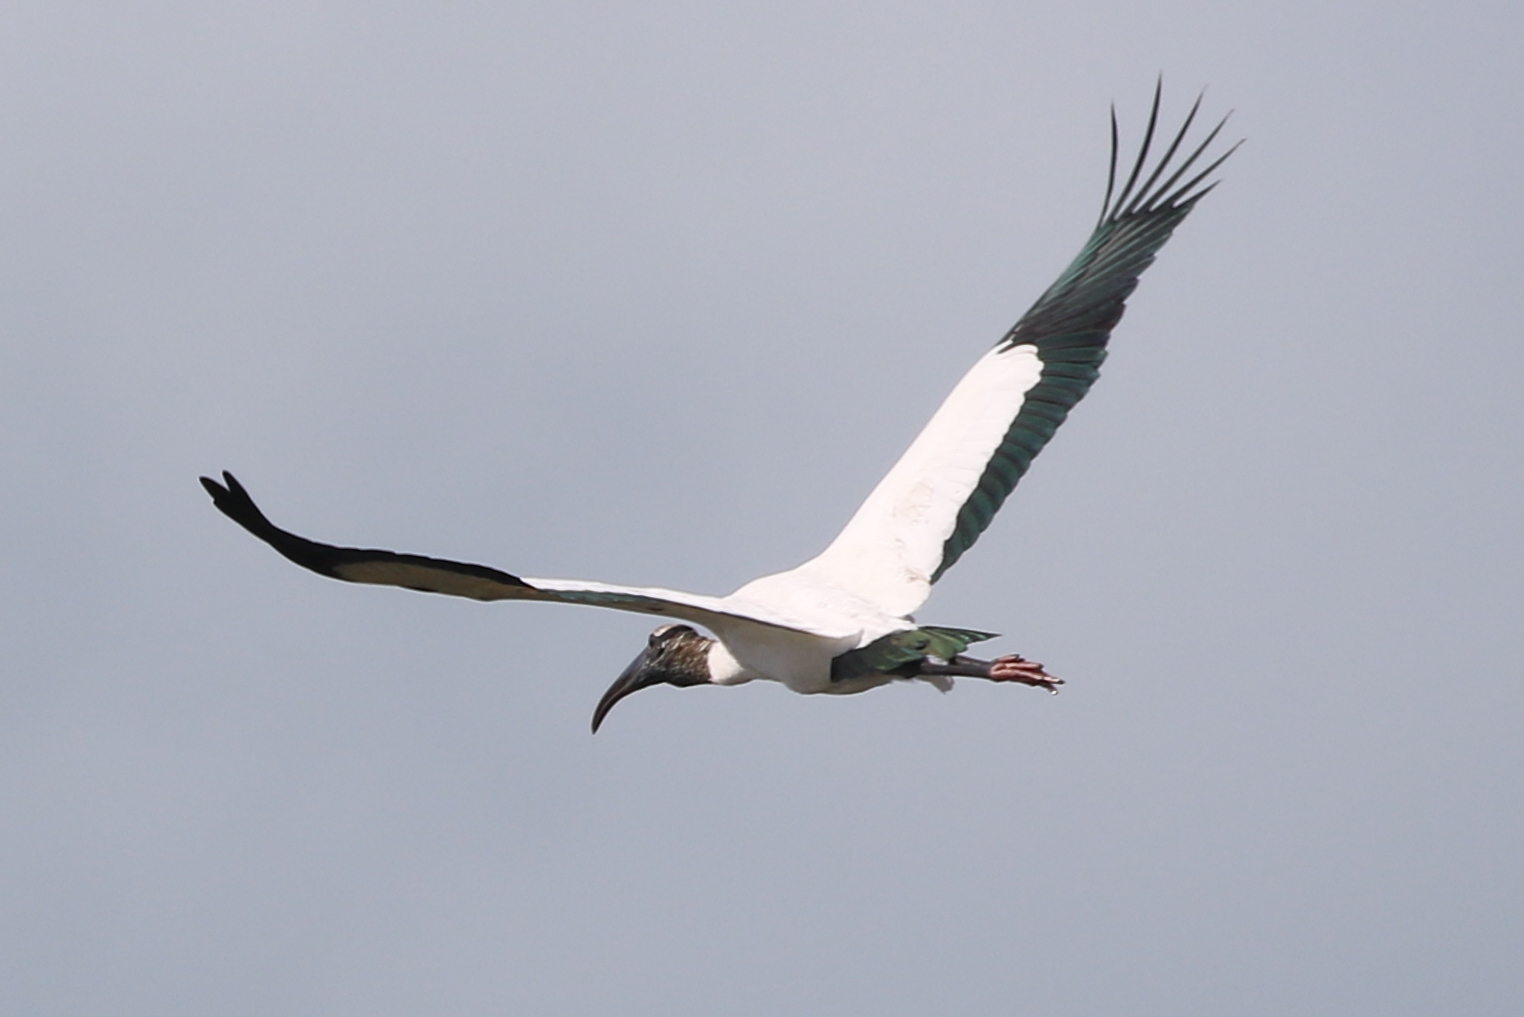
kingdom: Animalia
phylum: Chordata
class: Aves
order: Ciconiiformes
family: Ciconiidae
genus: Mycteria
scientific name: Mycteria americana
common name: Wood stork
